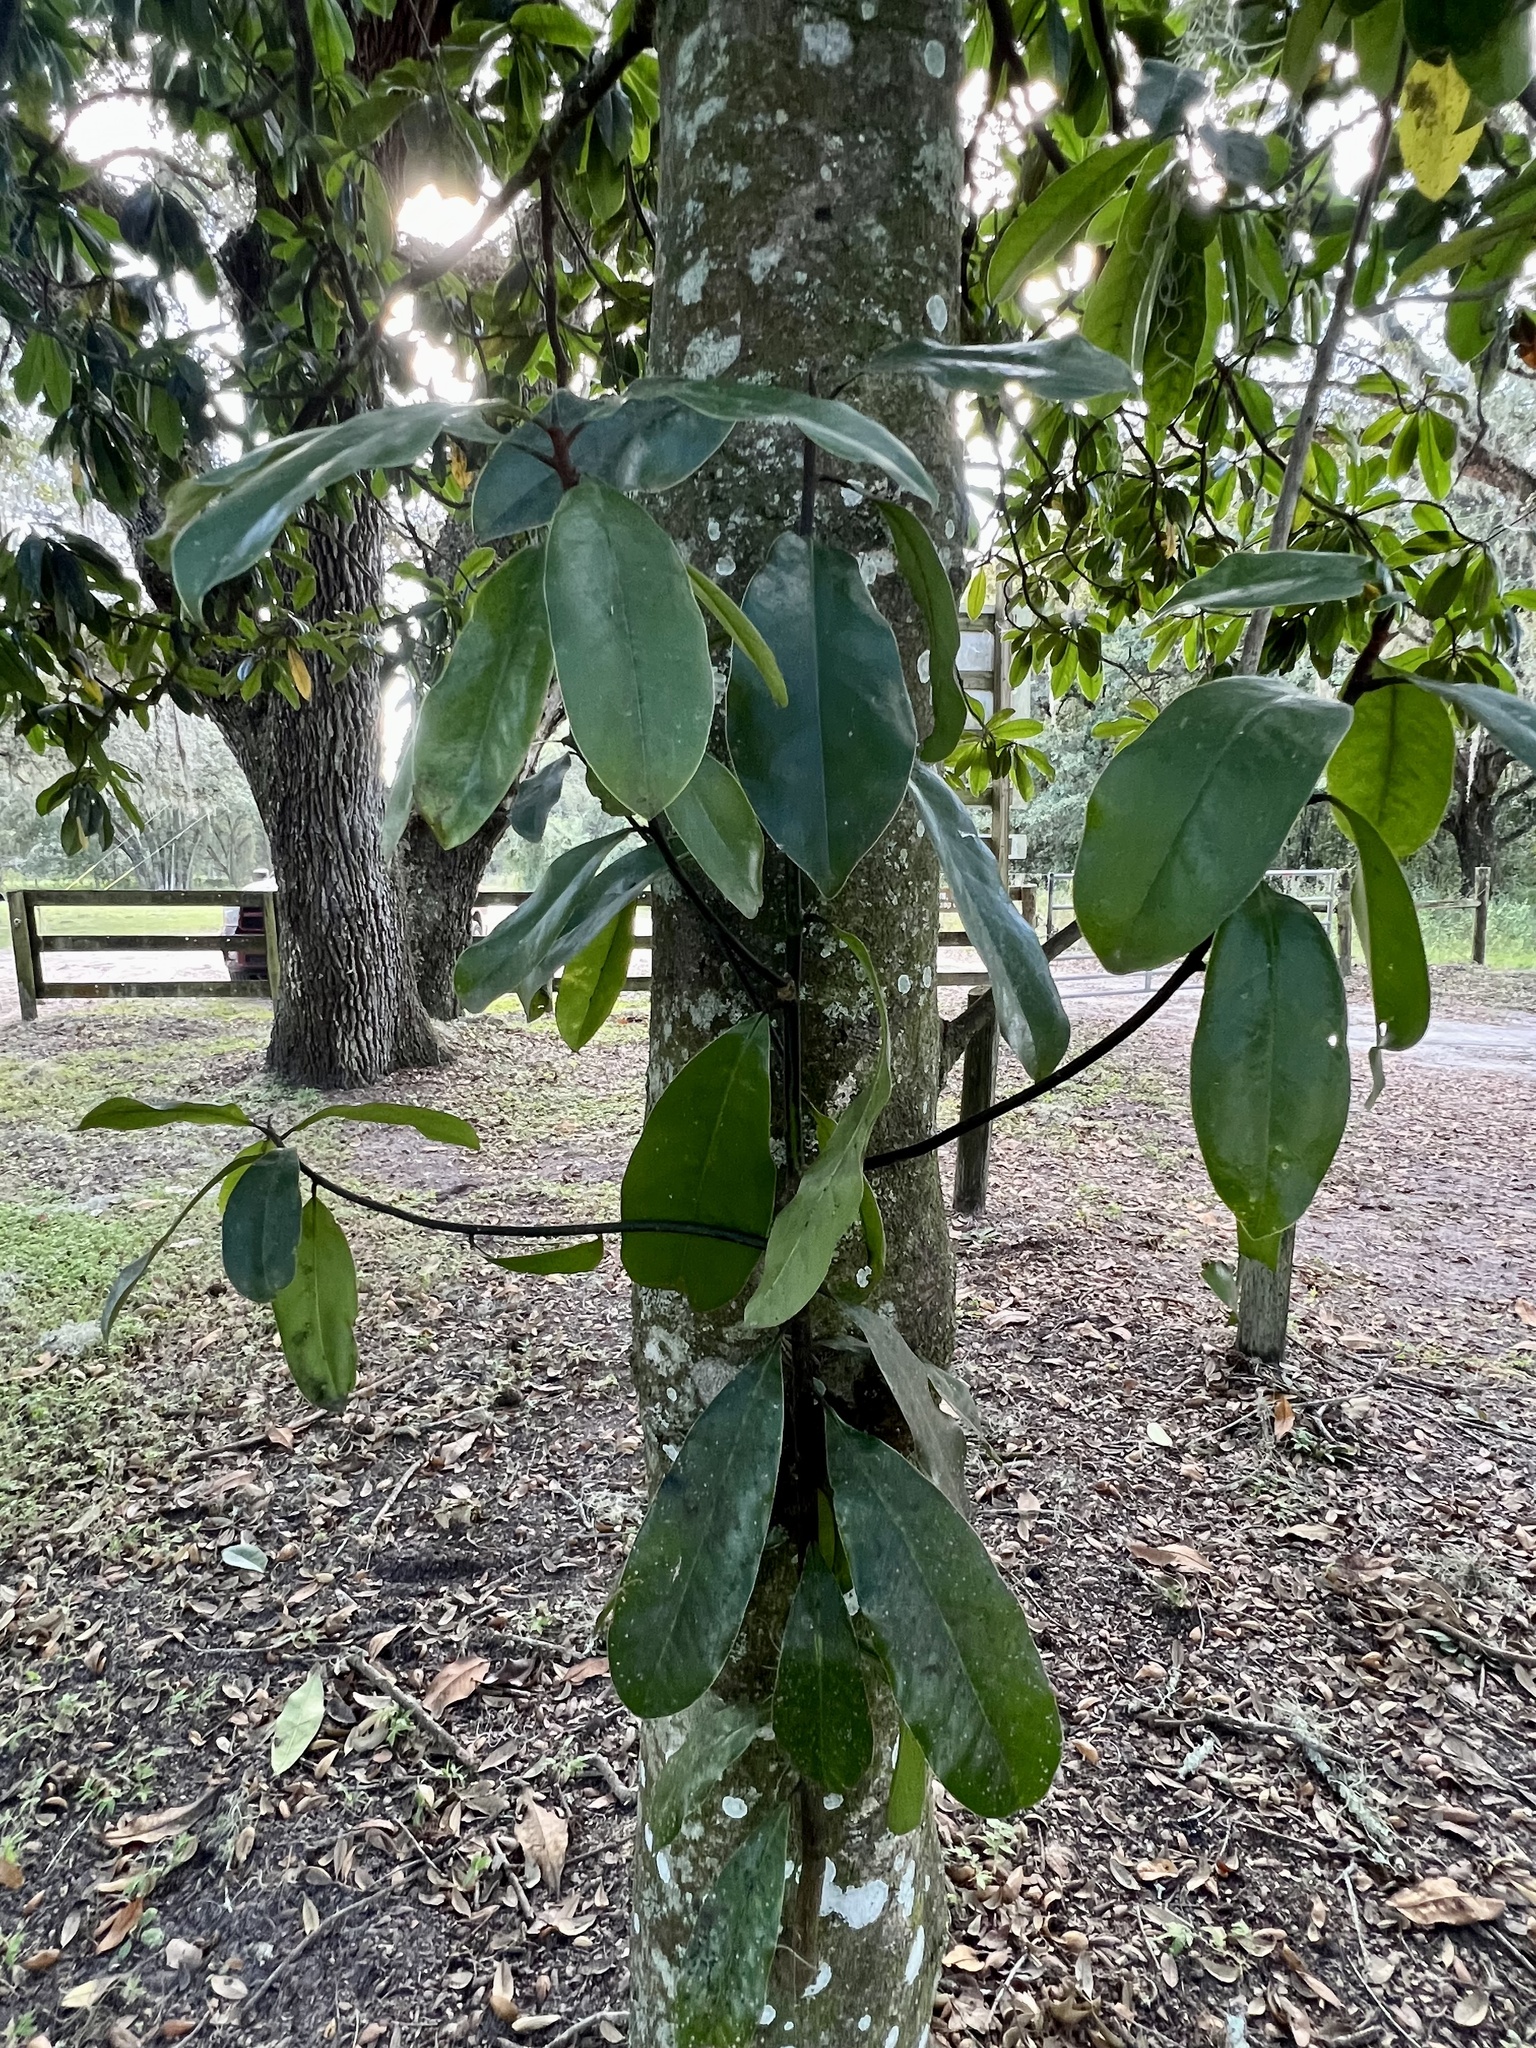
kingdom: Plantae
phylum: Tracheophyta
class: Magnoliopsida
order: Magnoliales
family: Magnoliaceae
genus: Magnolia
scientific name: Magnolia grandiflora
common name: Southern magnolia
